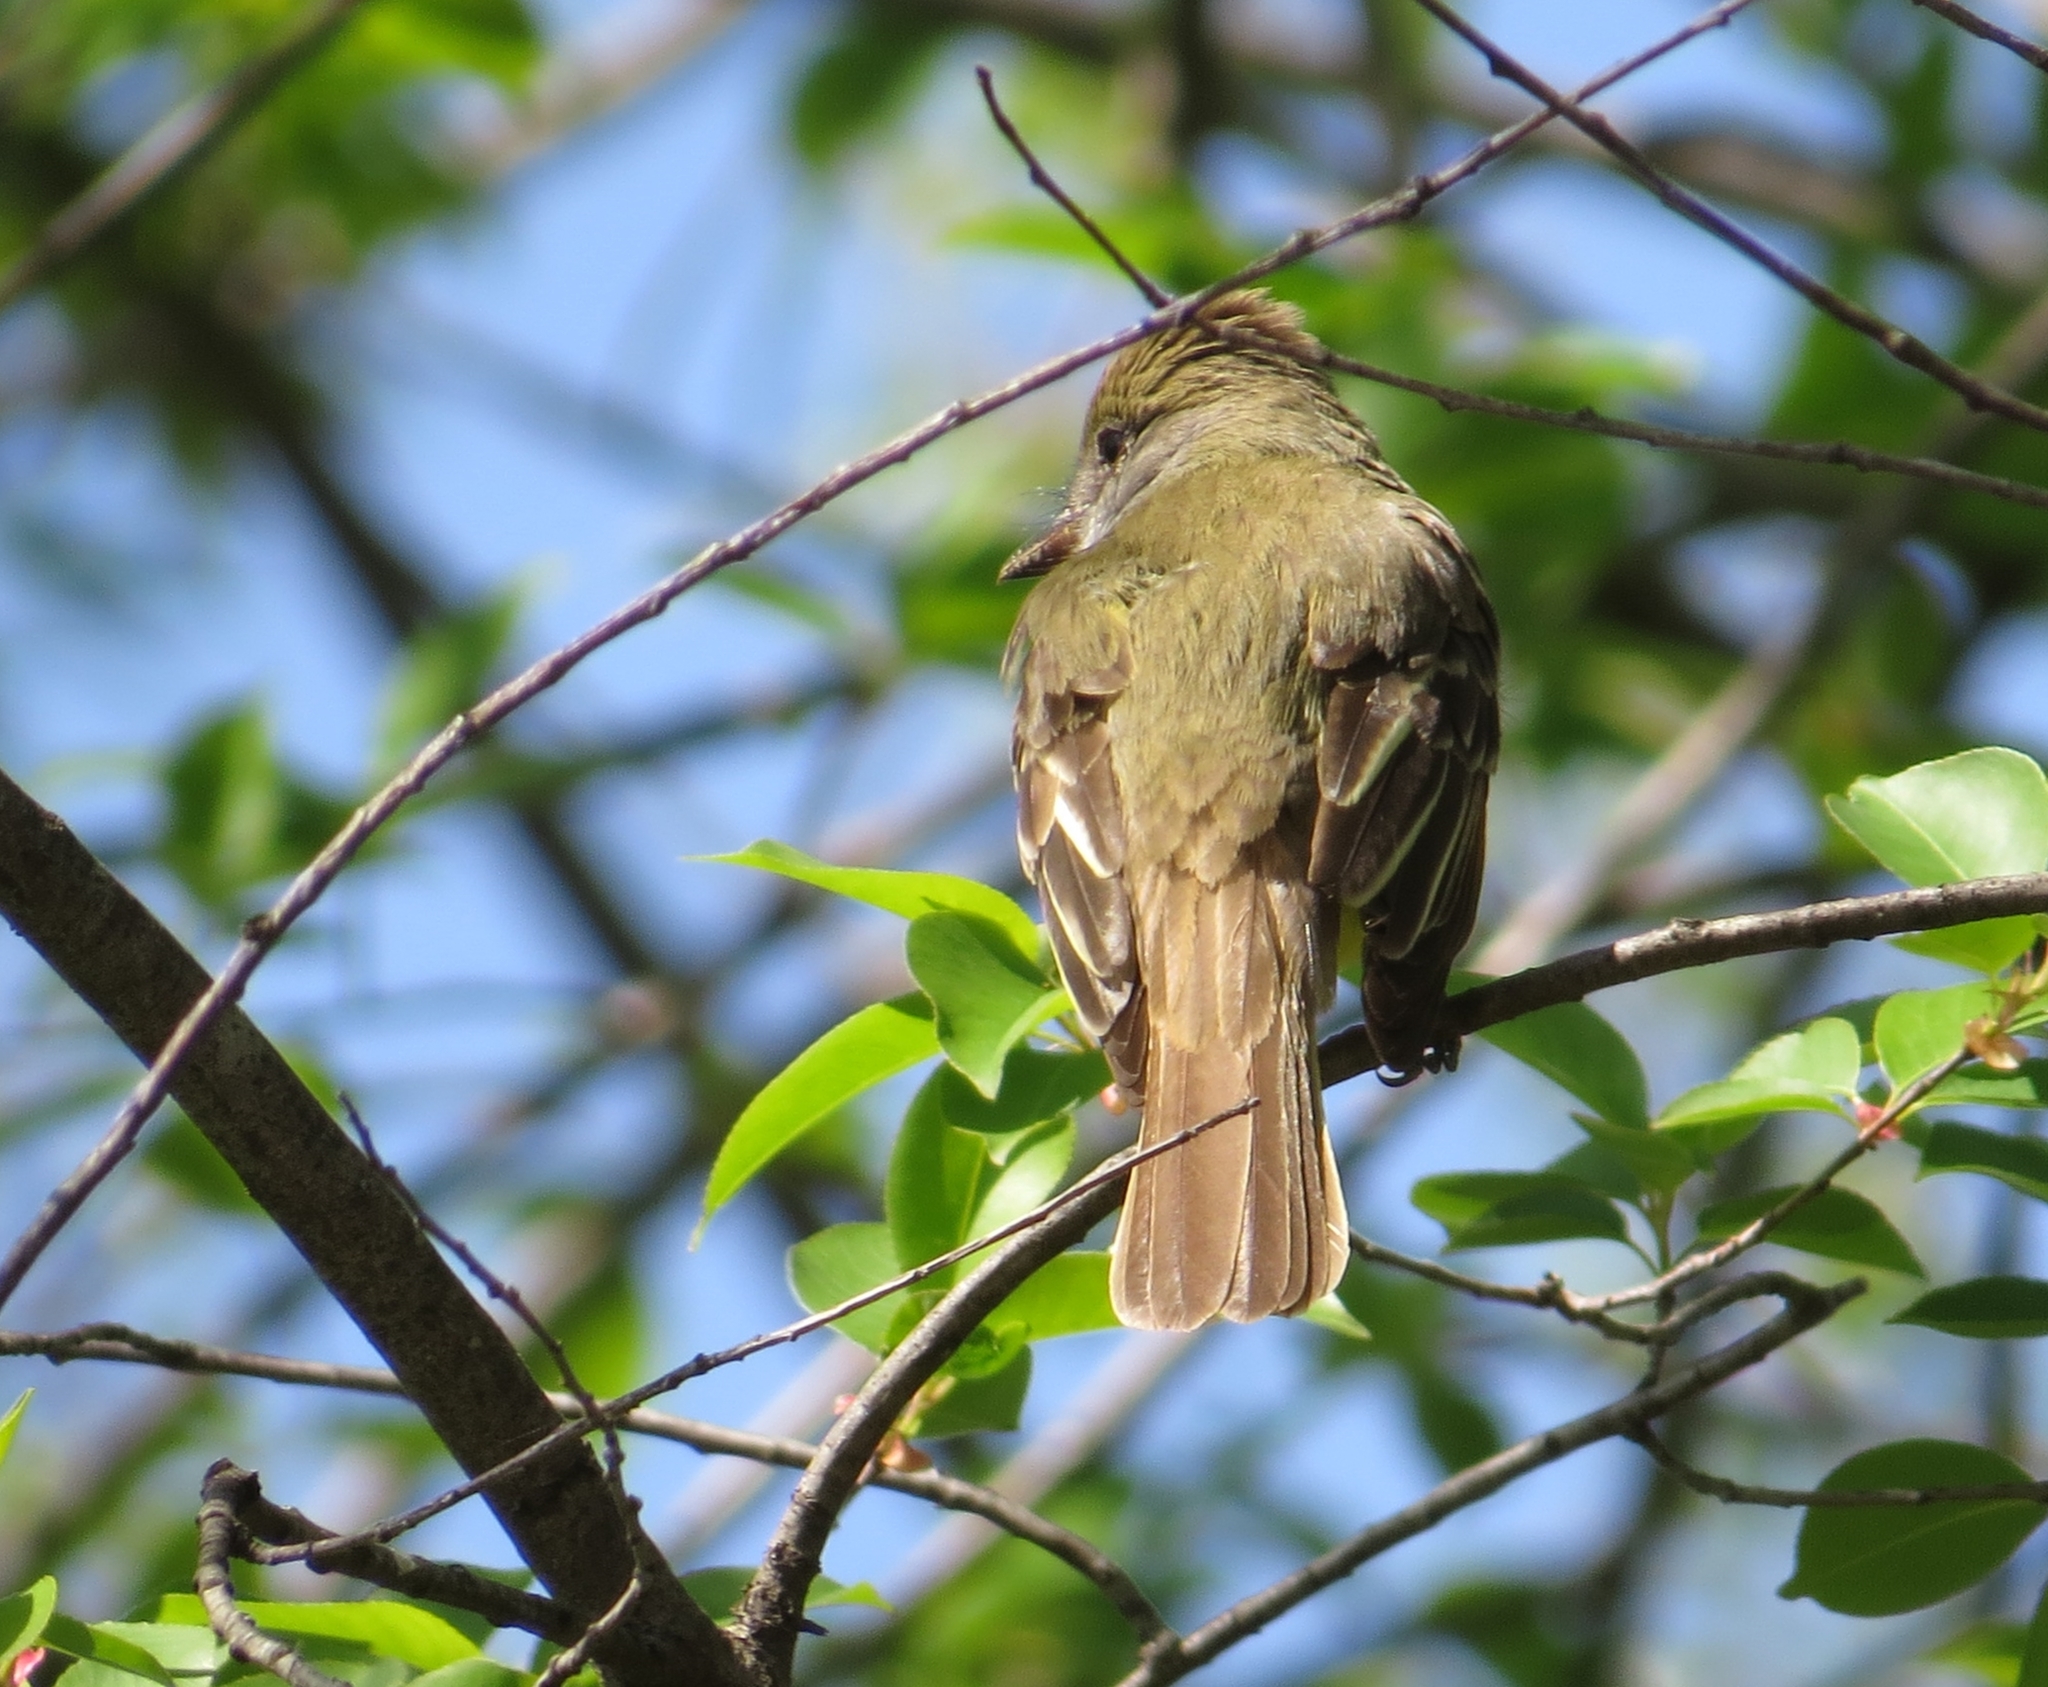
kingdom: Animalia
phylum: Chordata
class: Aves
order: Passeriformes
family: Tyrannidae
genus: Myiarchus
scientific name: Myiarchus crinitus
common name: Great crested flycatcher
